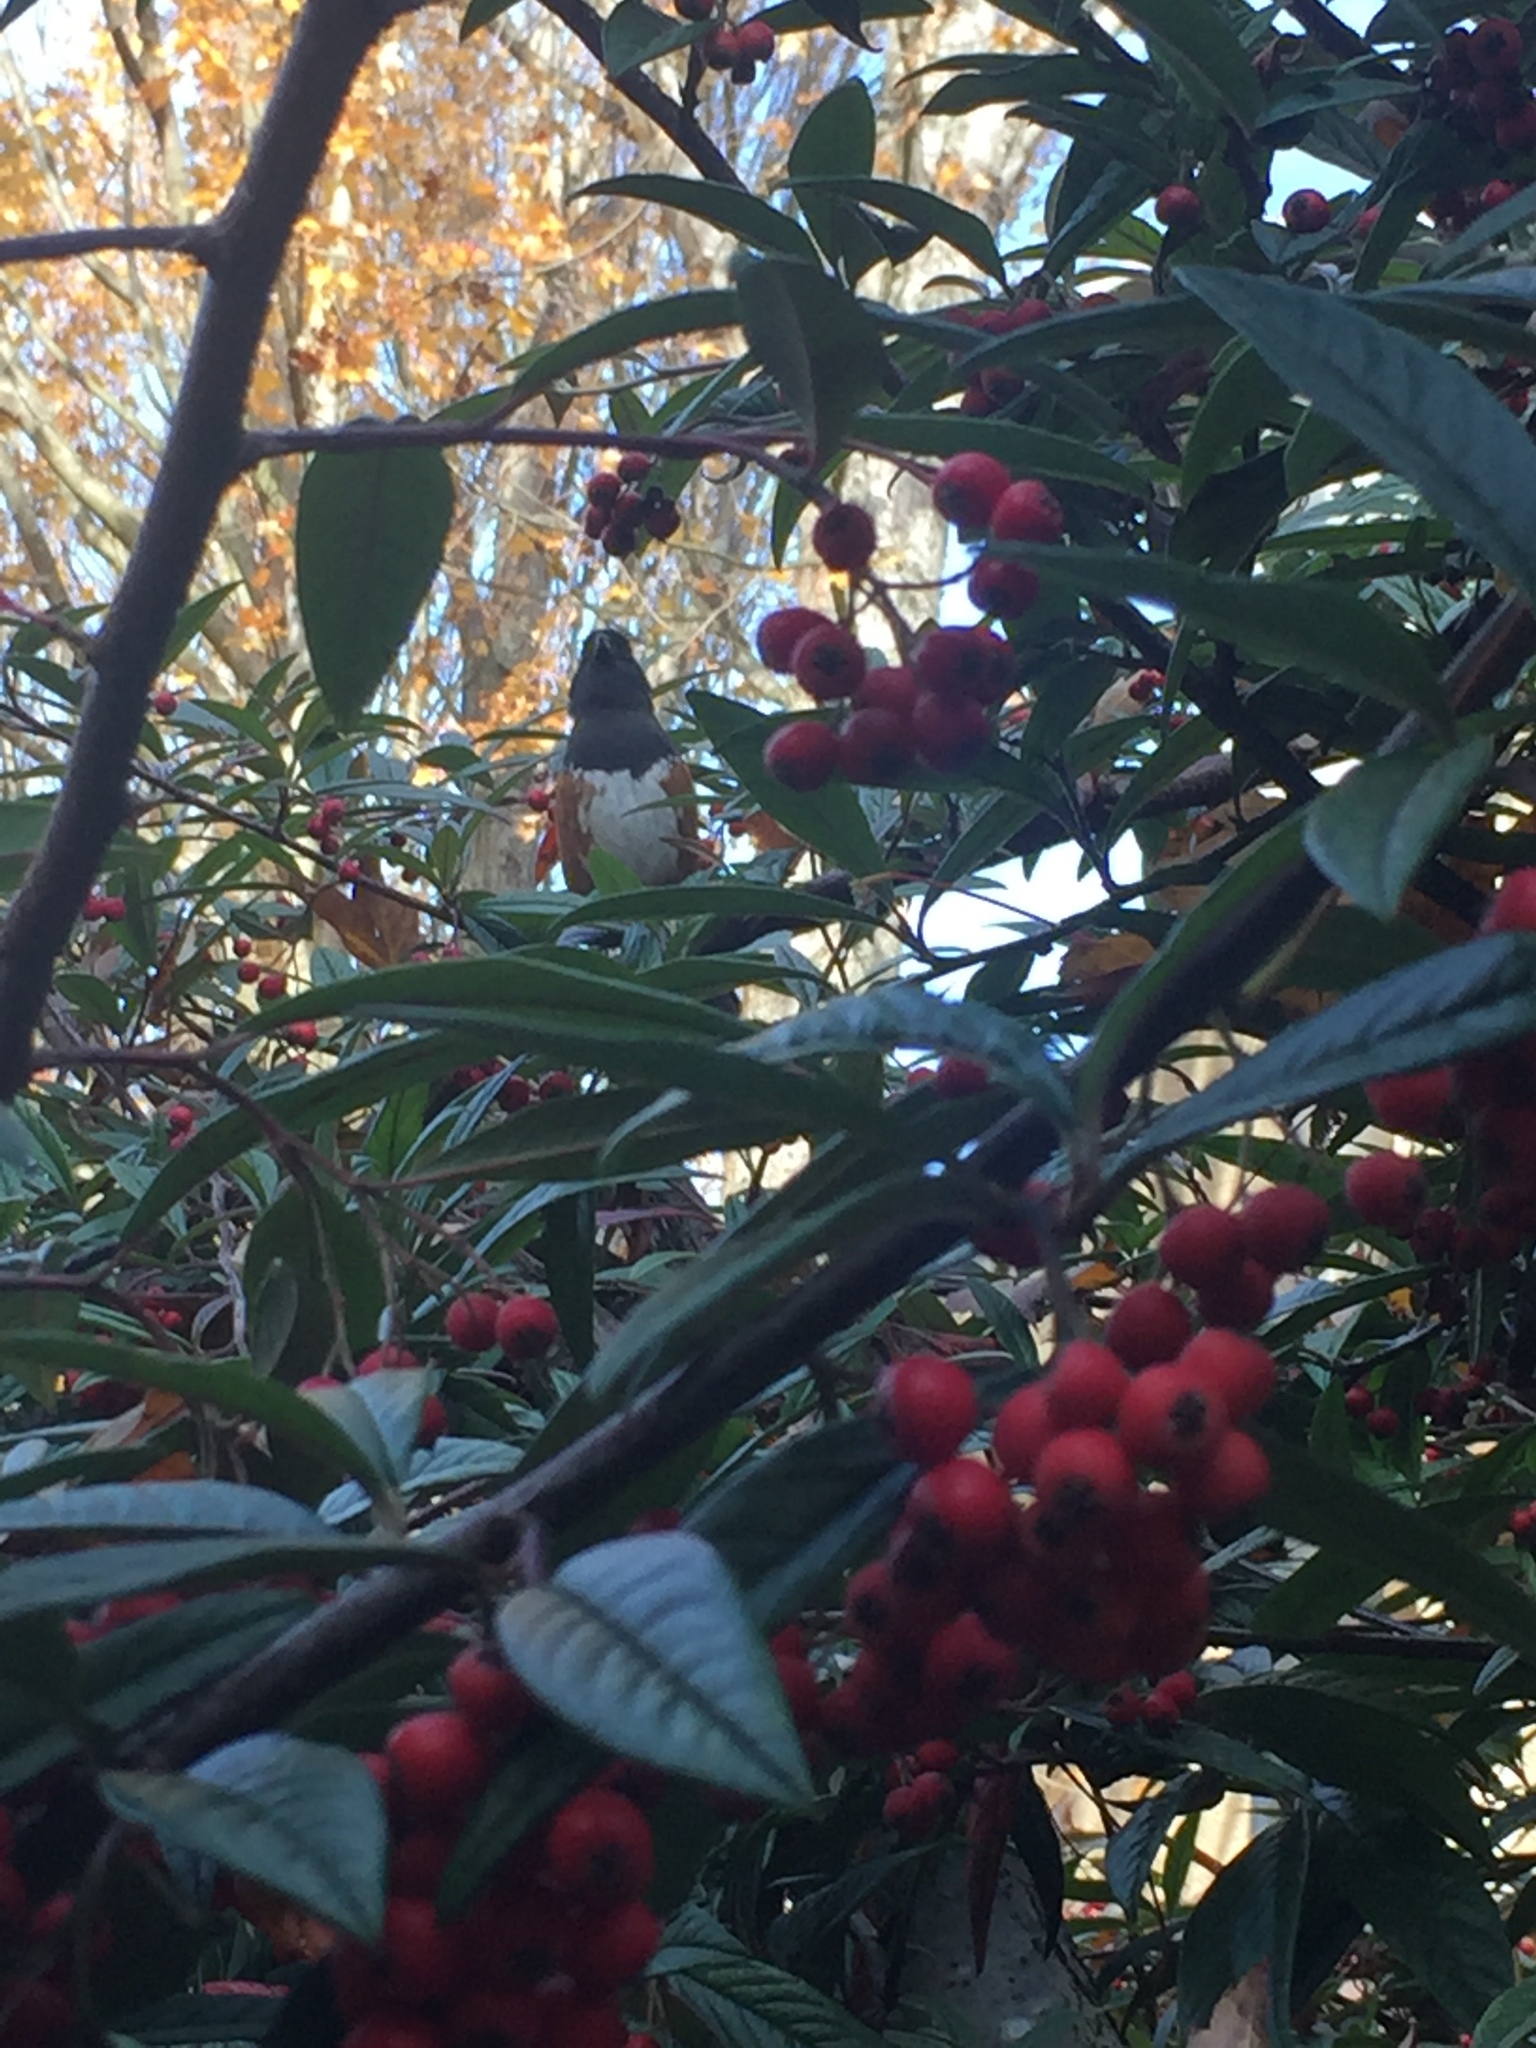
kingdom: Animalia
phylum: Chordata
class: Aves
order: Passeriformes
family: Passerellidae
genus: Pipilo
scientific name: Pipilo maculatus
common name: Spotted towhee
